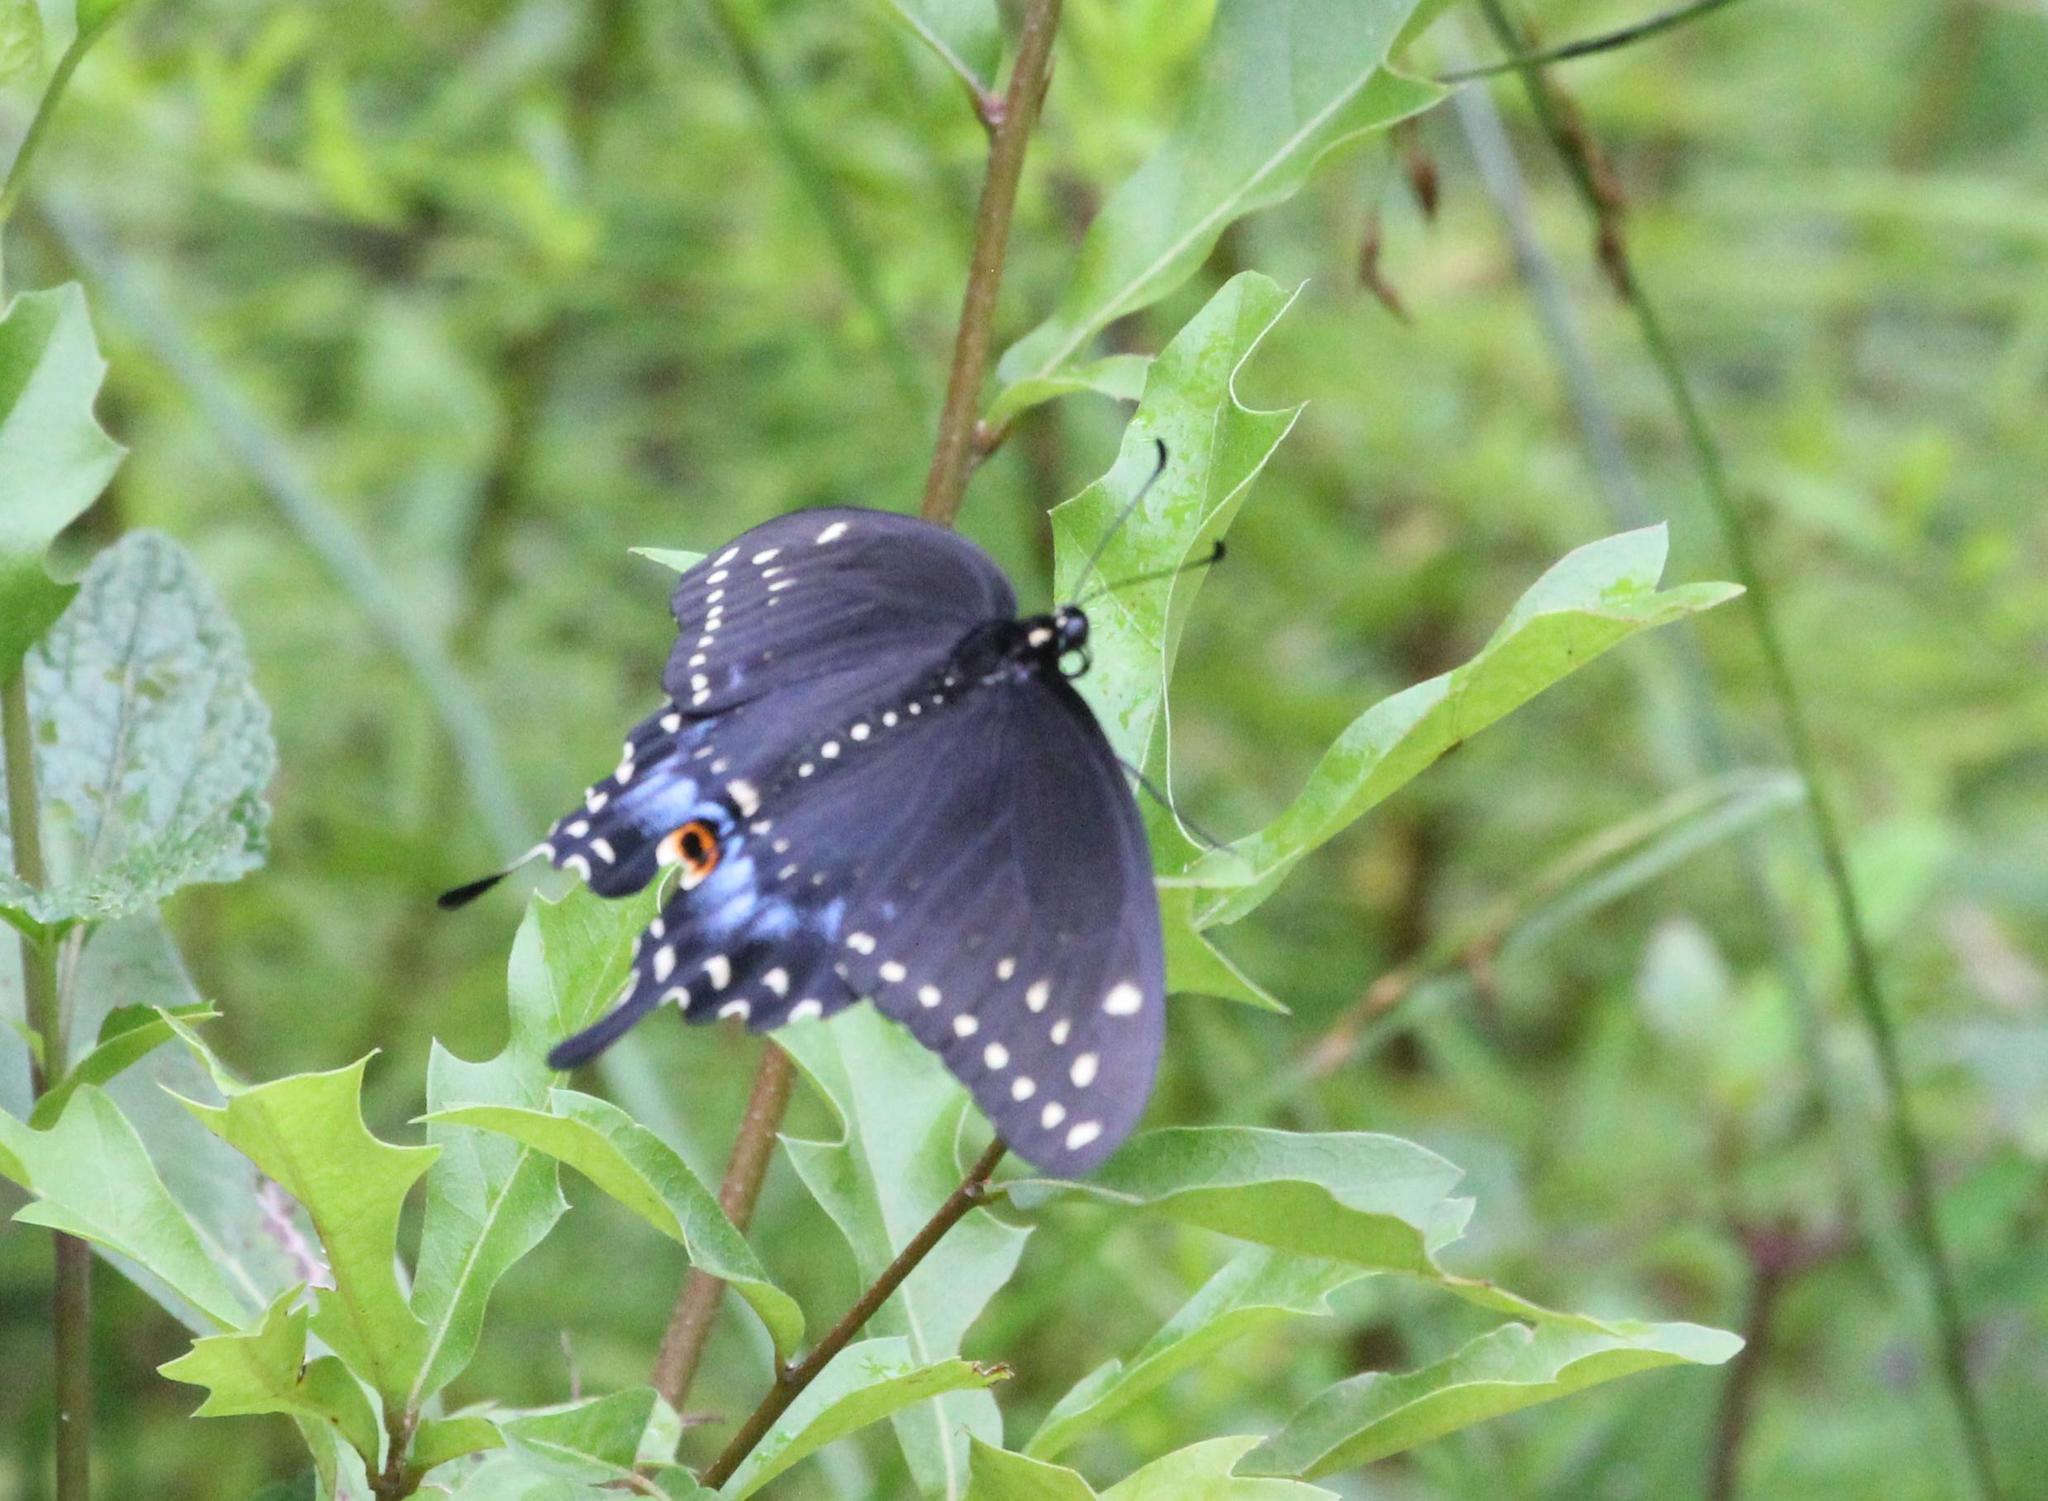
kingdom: Animalia
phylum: Arthropoda
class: Insecta
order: Lepidoptera
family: Papilionidae
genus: Papilio
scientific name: Papilio polyxenes
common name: Black swallowtail
